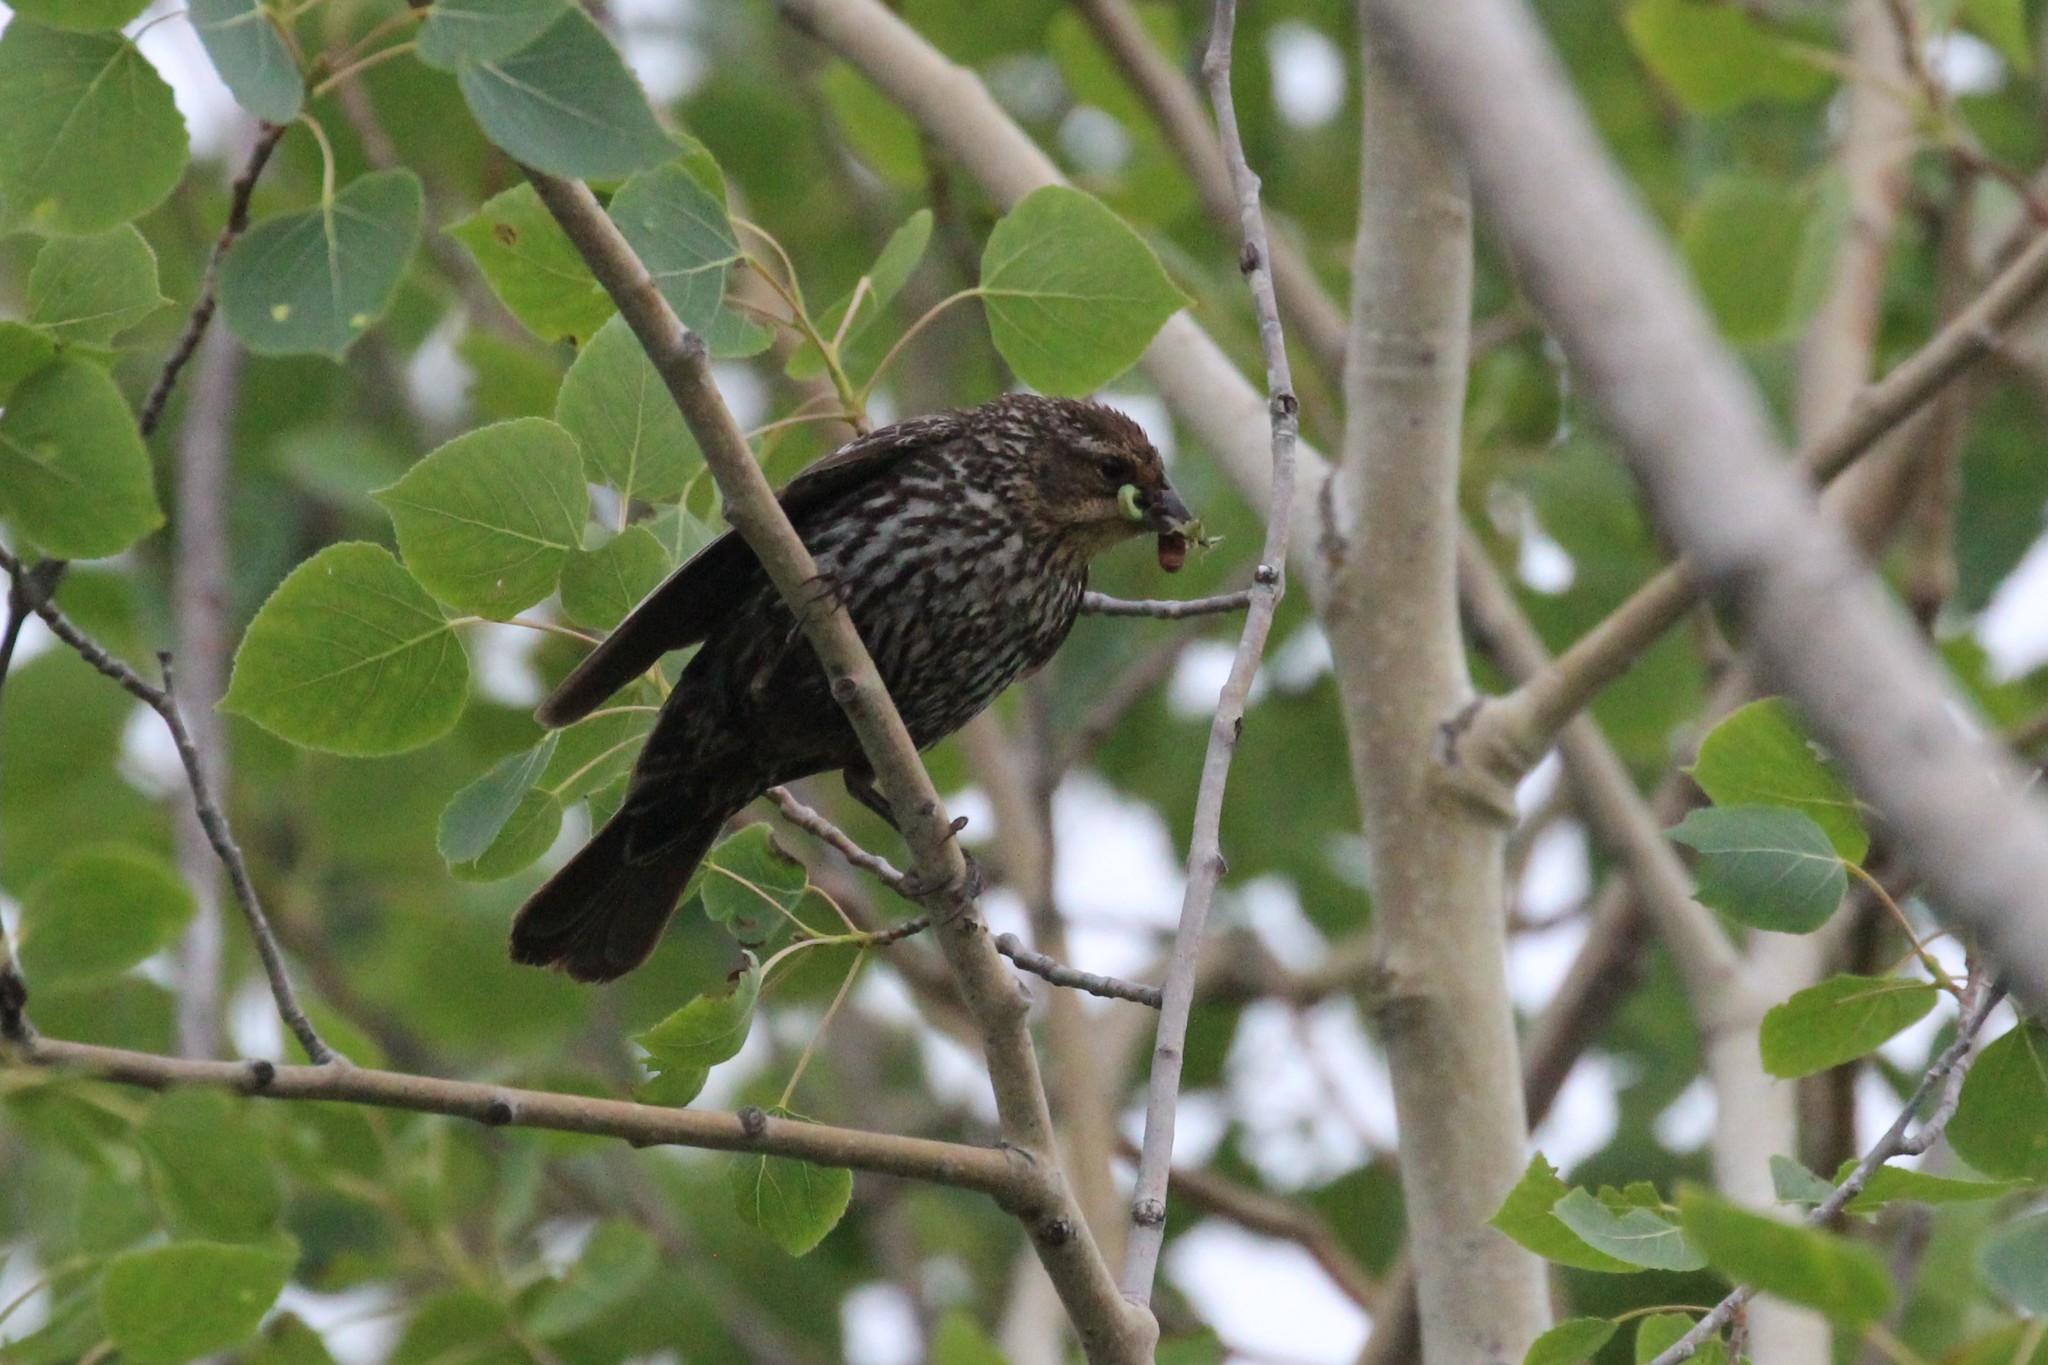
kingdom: Animalia
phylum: Chordata
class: Aves
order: Passeriformes
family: Icteridae
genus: Agelaius
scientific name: Agelaius phoeniceus
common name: Red-winged blackbird
